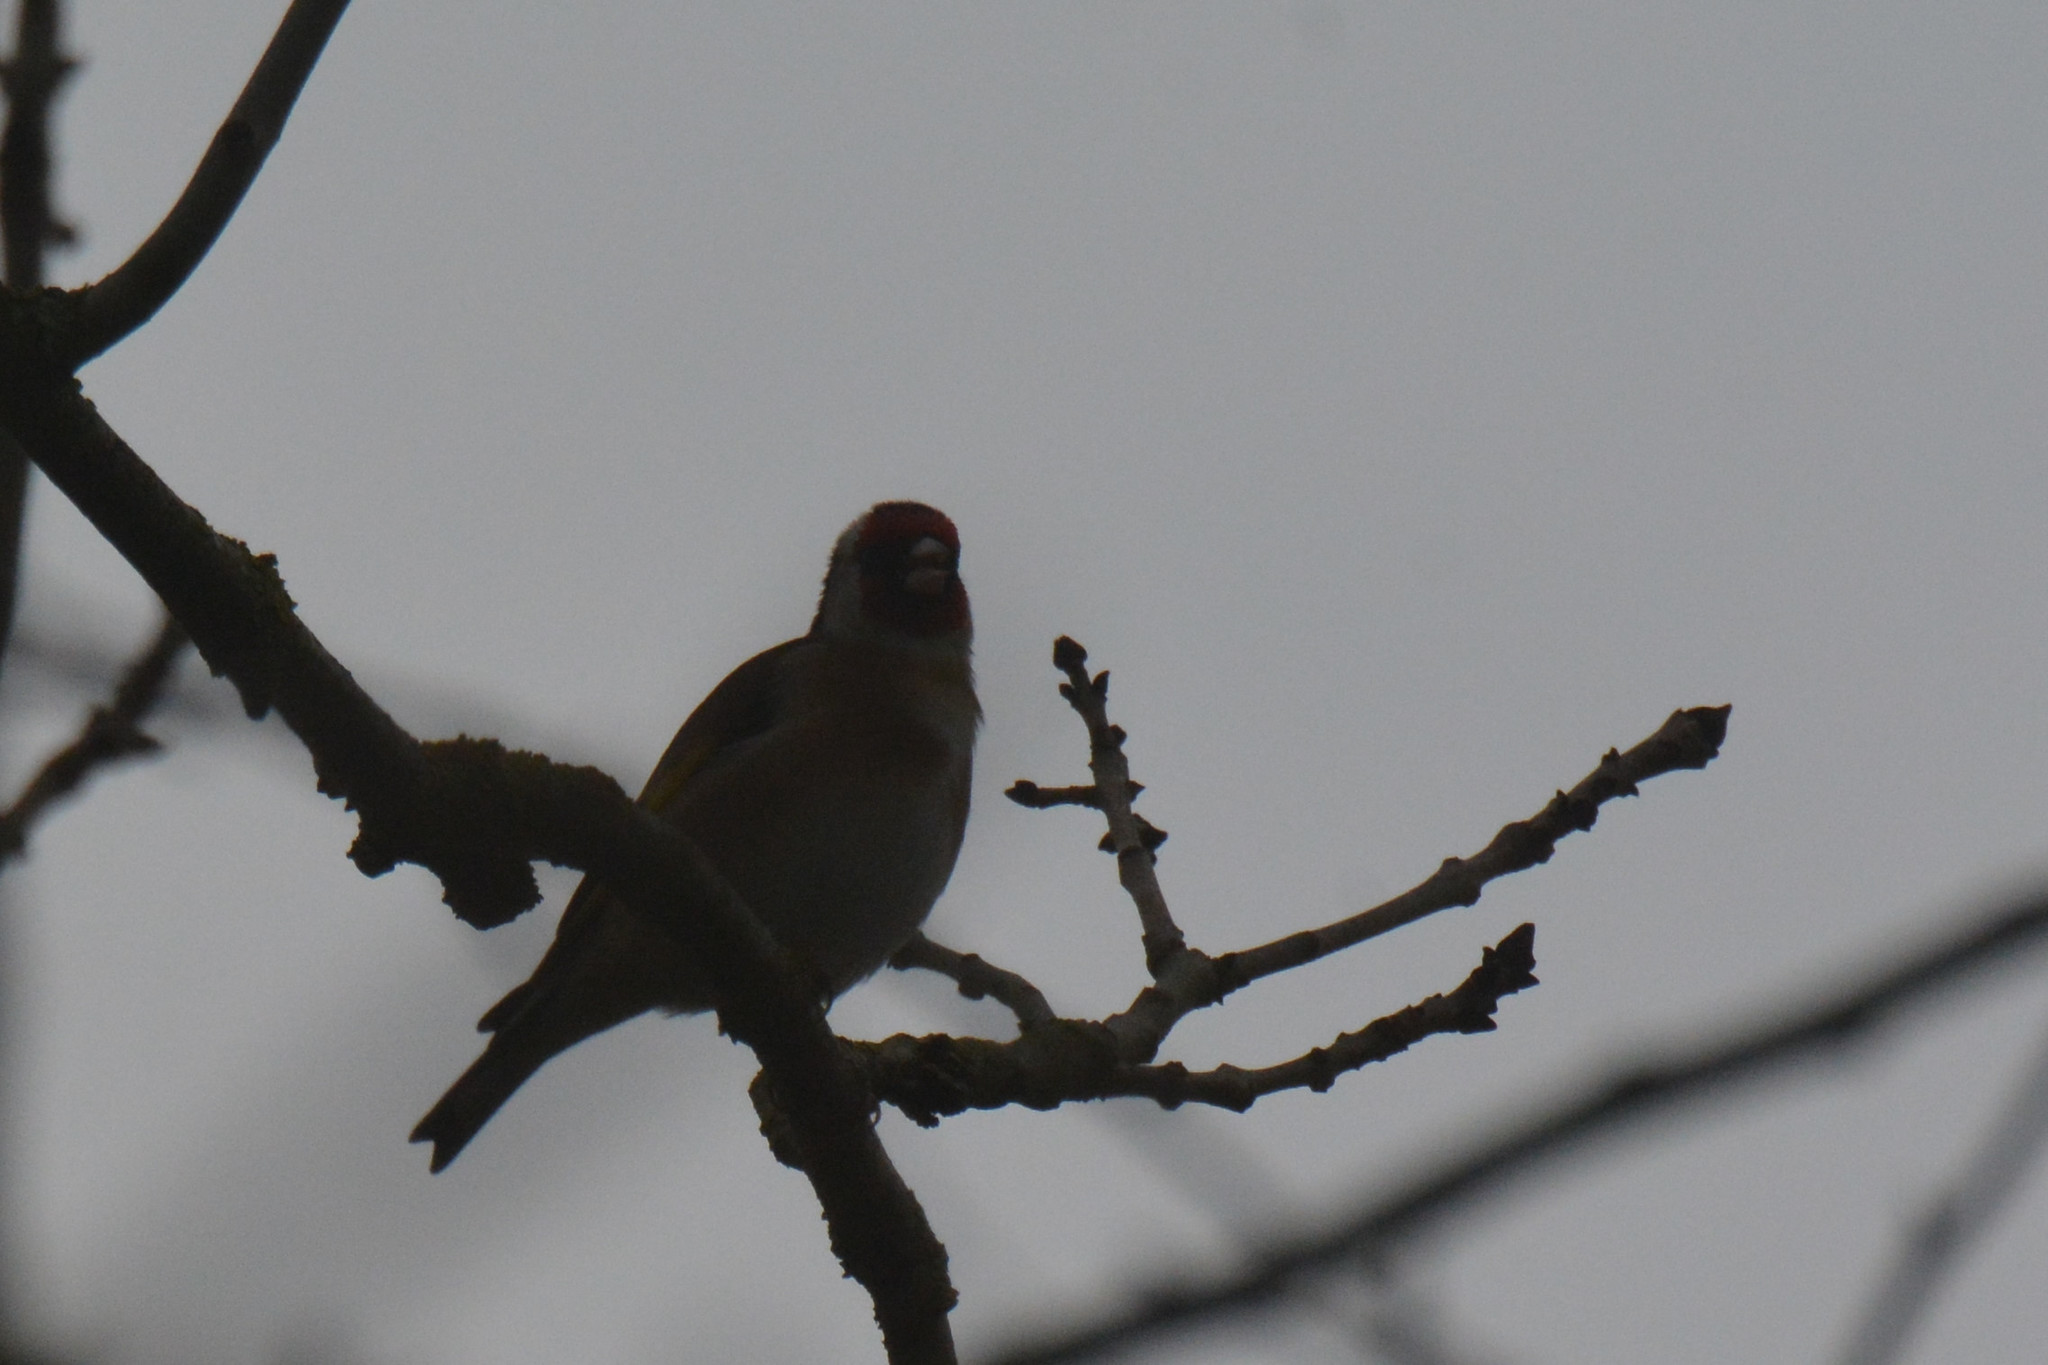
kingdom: Animalia
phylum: Chordata
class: Aves
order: Passeriformes
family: Fringillidae
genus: Carduelis
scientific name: Carduelis carduelis
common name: European goldfinch
